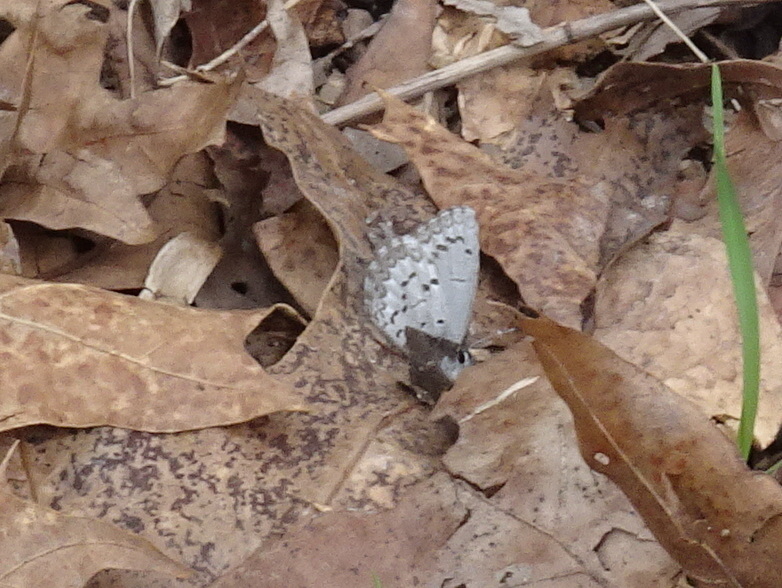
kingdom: Animalia
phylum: Arthropoda
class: Insecta
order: Lepidoptera
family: Lycaenidae
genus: Celastrina
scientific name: Celastrina ladon
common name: Spring azure
